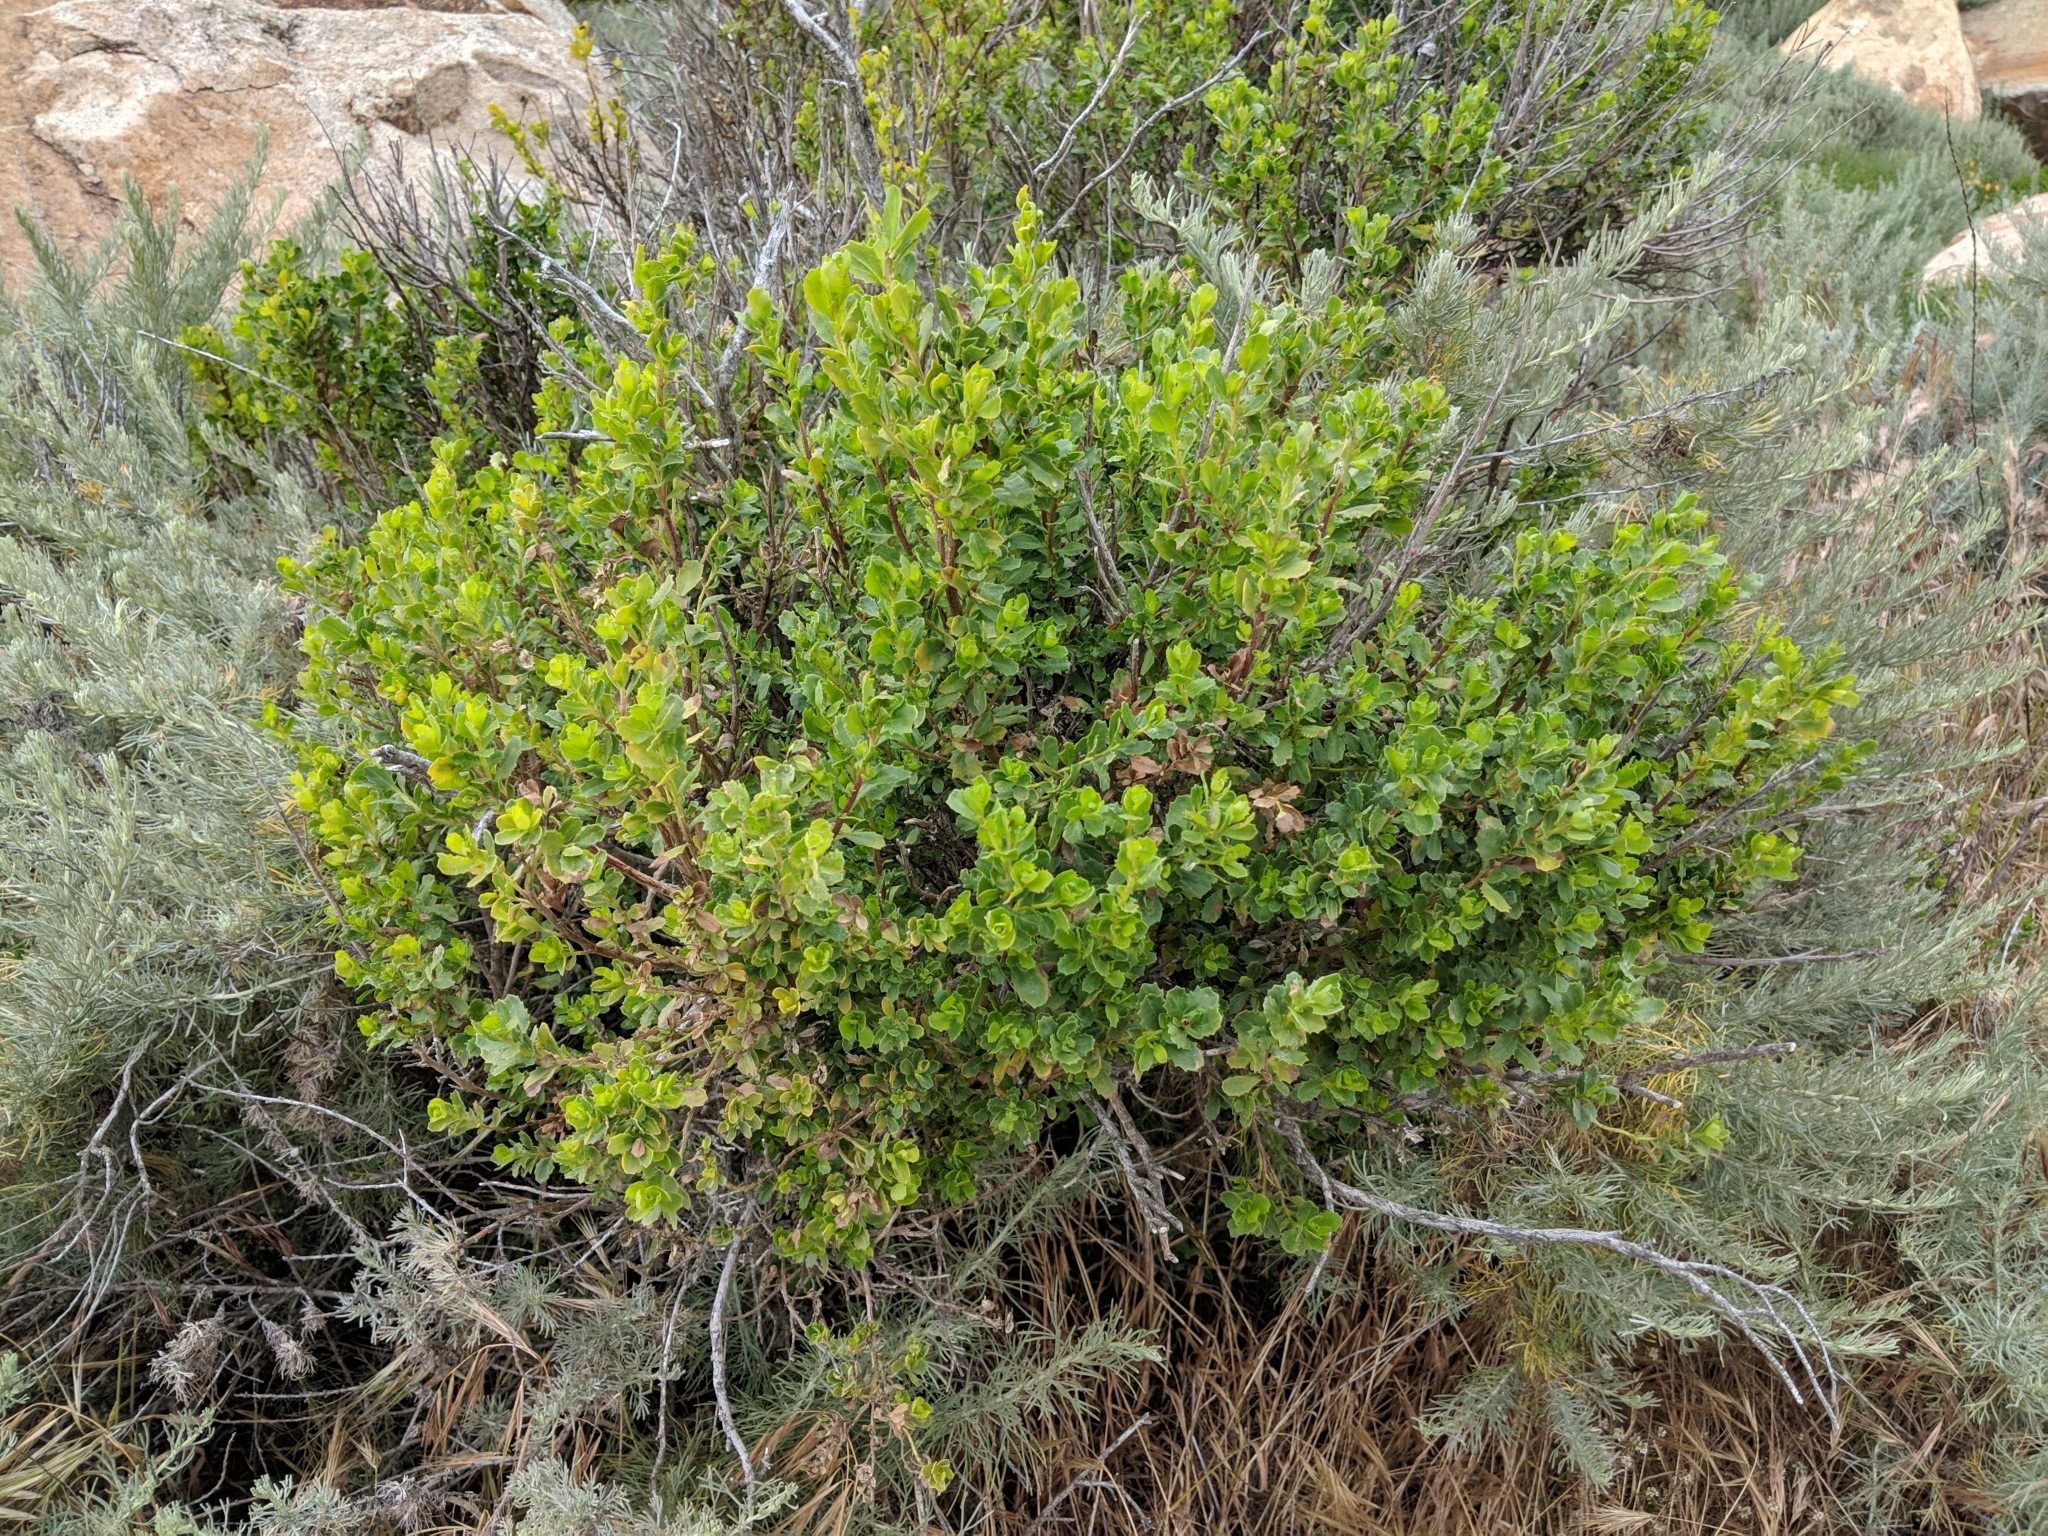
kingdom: Plantae
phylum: Tracheophyta
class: Magnoliopsida
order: Asterales
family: Asteraceae
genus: Baccharis
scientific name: Baccharis pilularis
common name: Coyotebrush
